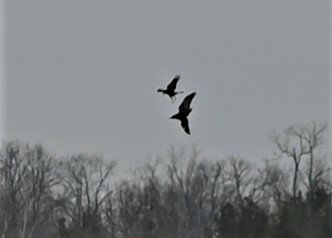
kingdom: Animalia
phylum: Chordata
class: Aves
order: Passeriformes
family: Corvidae
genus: Corvus
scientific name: Corvus corax
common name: Common raven
